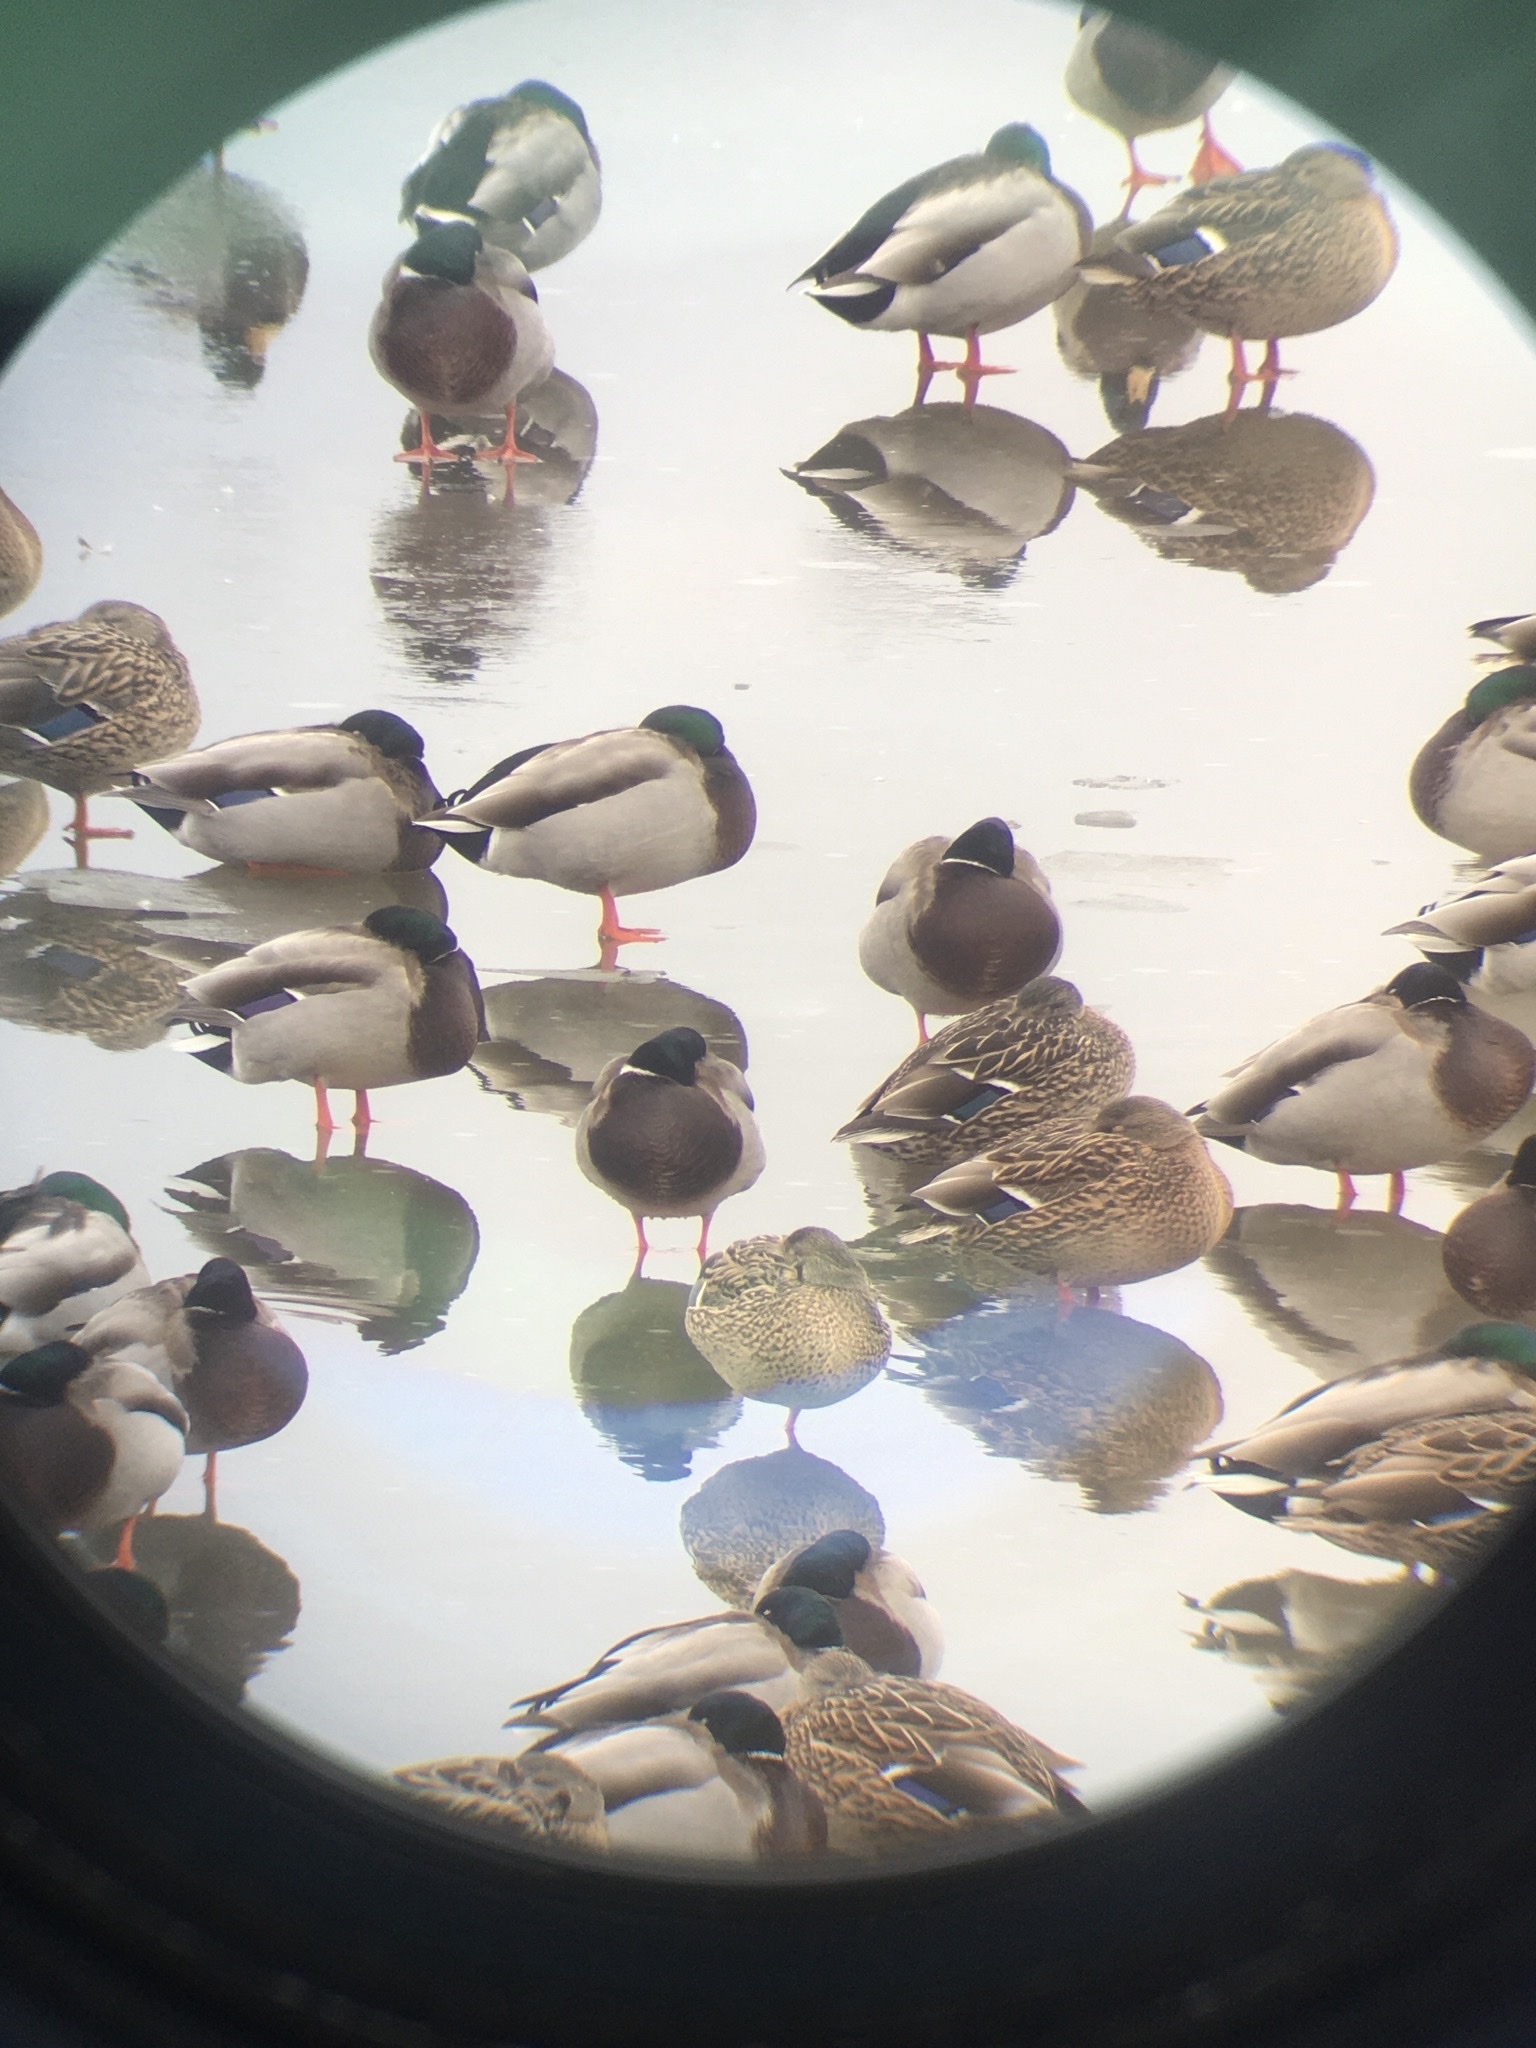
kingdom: Animalia
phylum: Chordata
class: Aves
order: Anseriformes
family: Anatidae
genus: Anas
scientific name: Anas platyrhynchos
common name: Mallard
